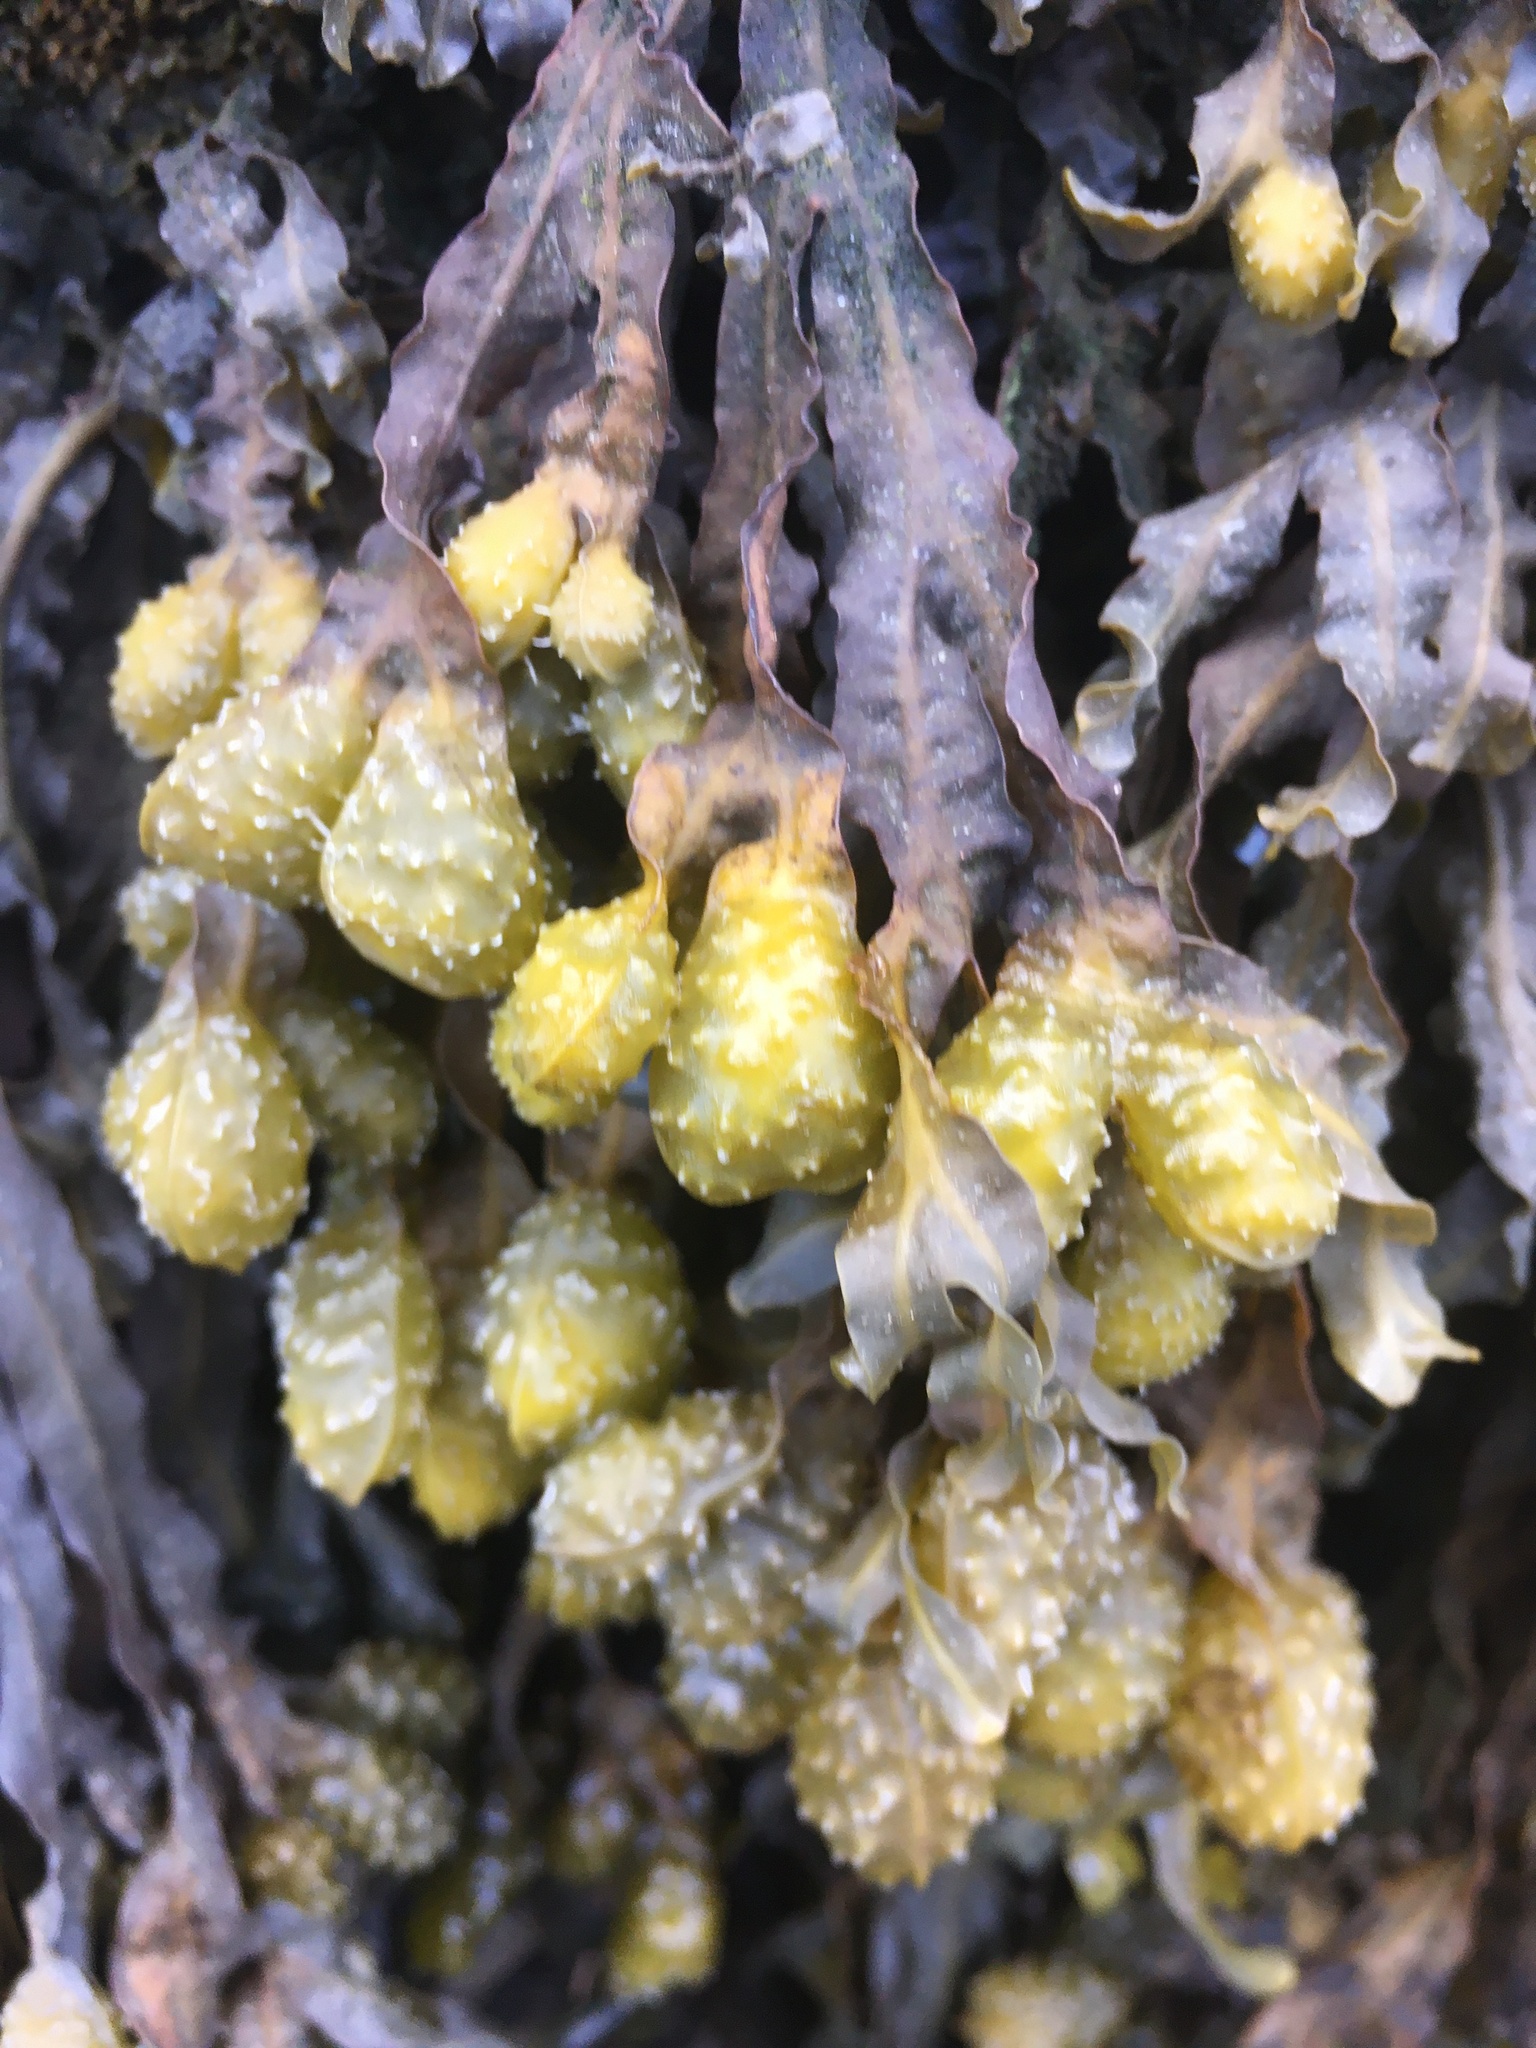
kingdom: Chromista
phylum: Ochrophyta
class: Phaeophyceae
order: Fucales
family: Fucaceae
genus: Fucus
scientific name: Fucus spiralis
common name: Spiral wrack
